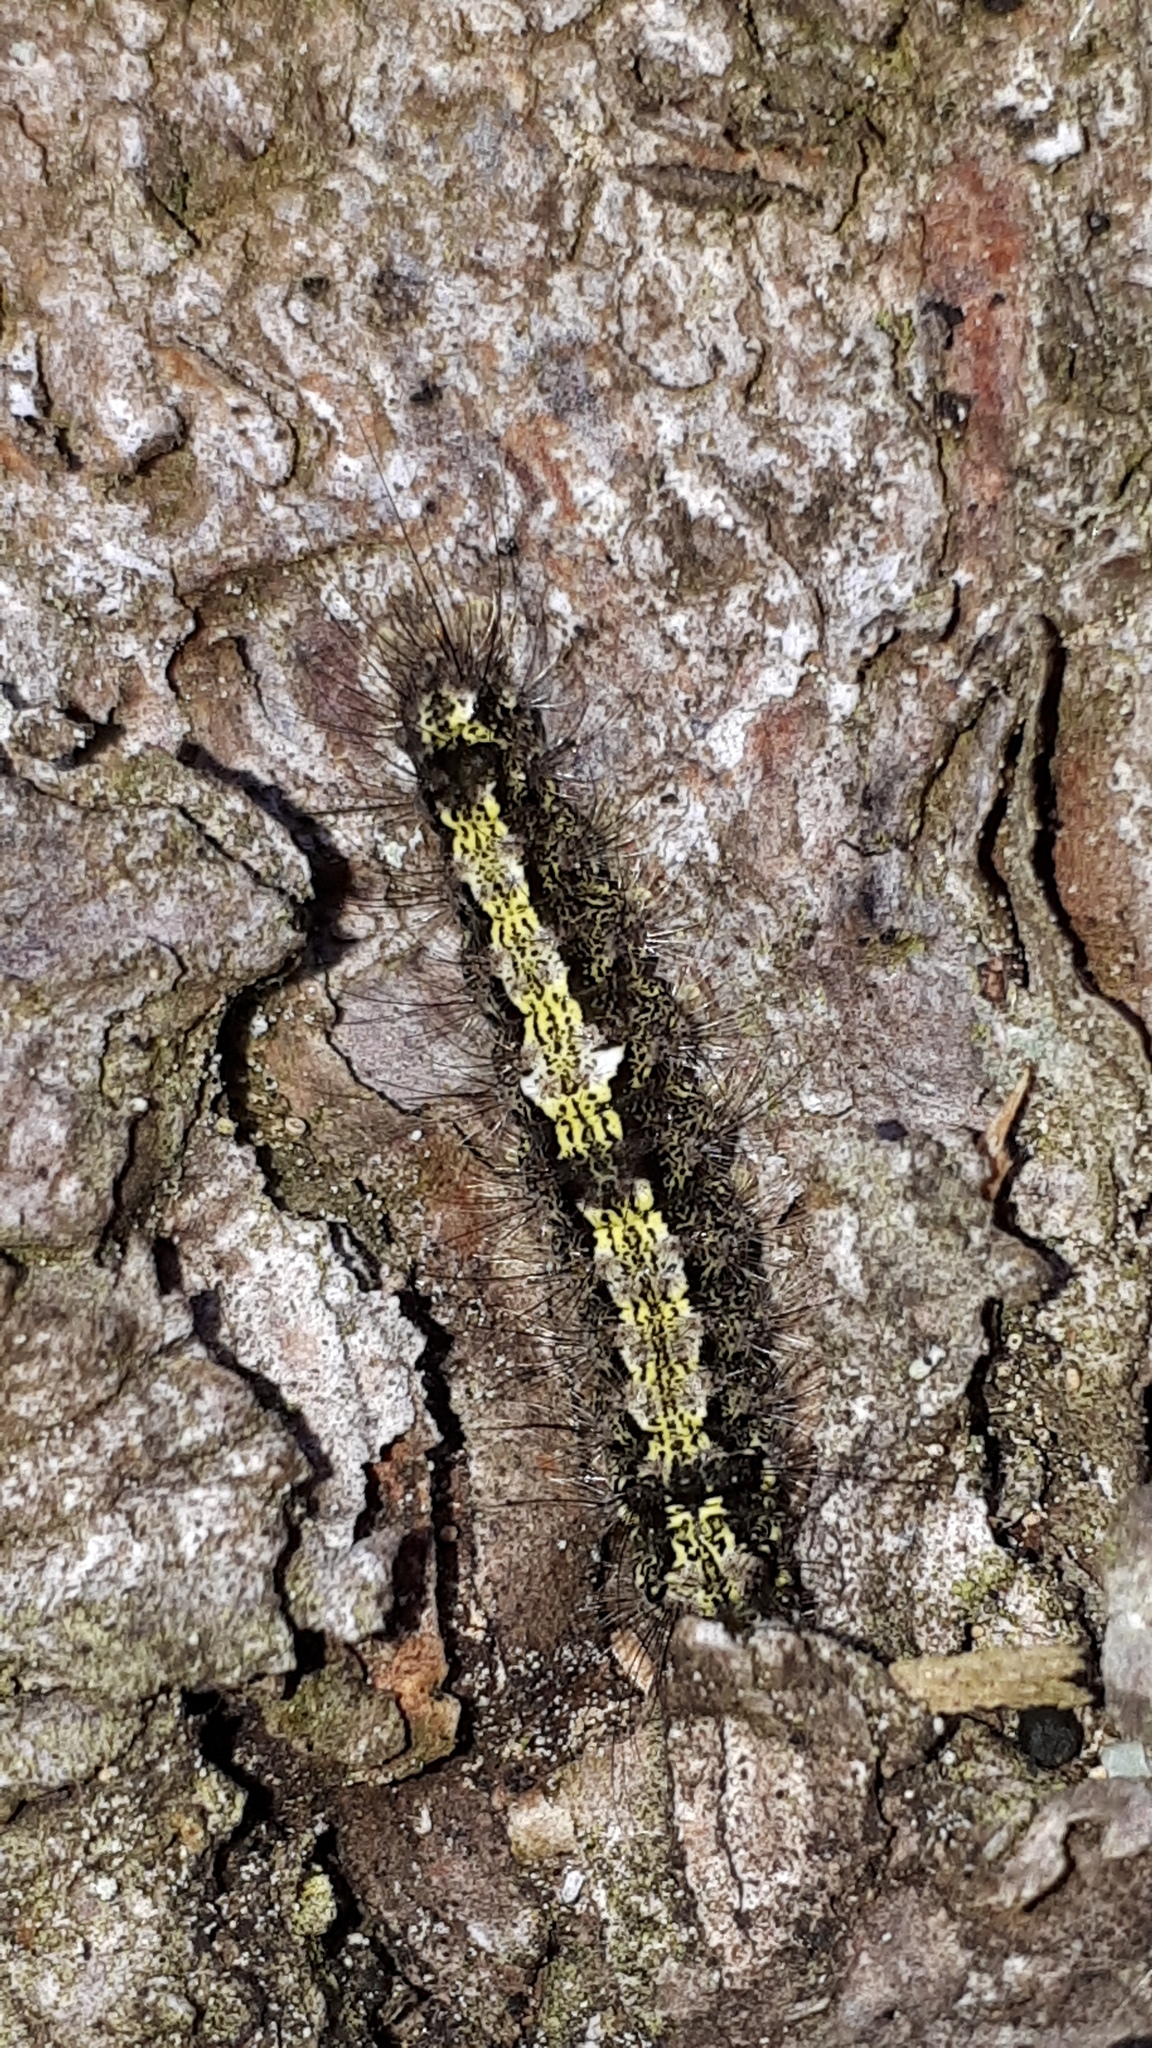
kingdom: Animalia
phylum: Arthropoda
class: Insecta
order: Lepidoptera
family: Erebidae
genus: Katha
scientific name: Katha depressa
